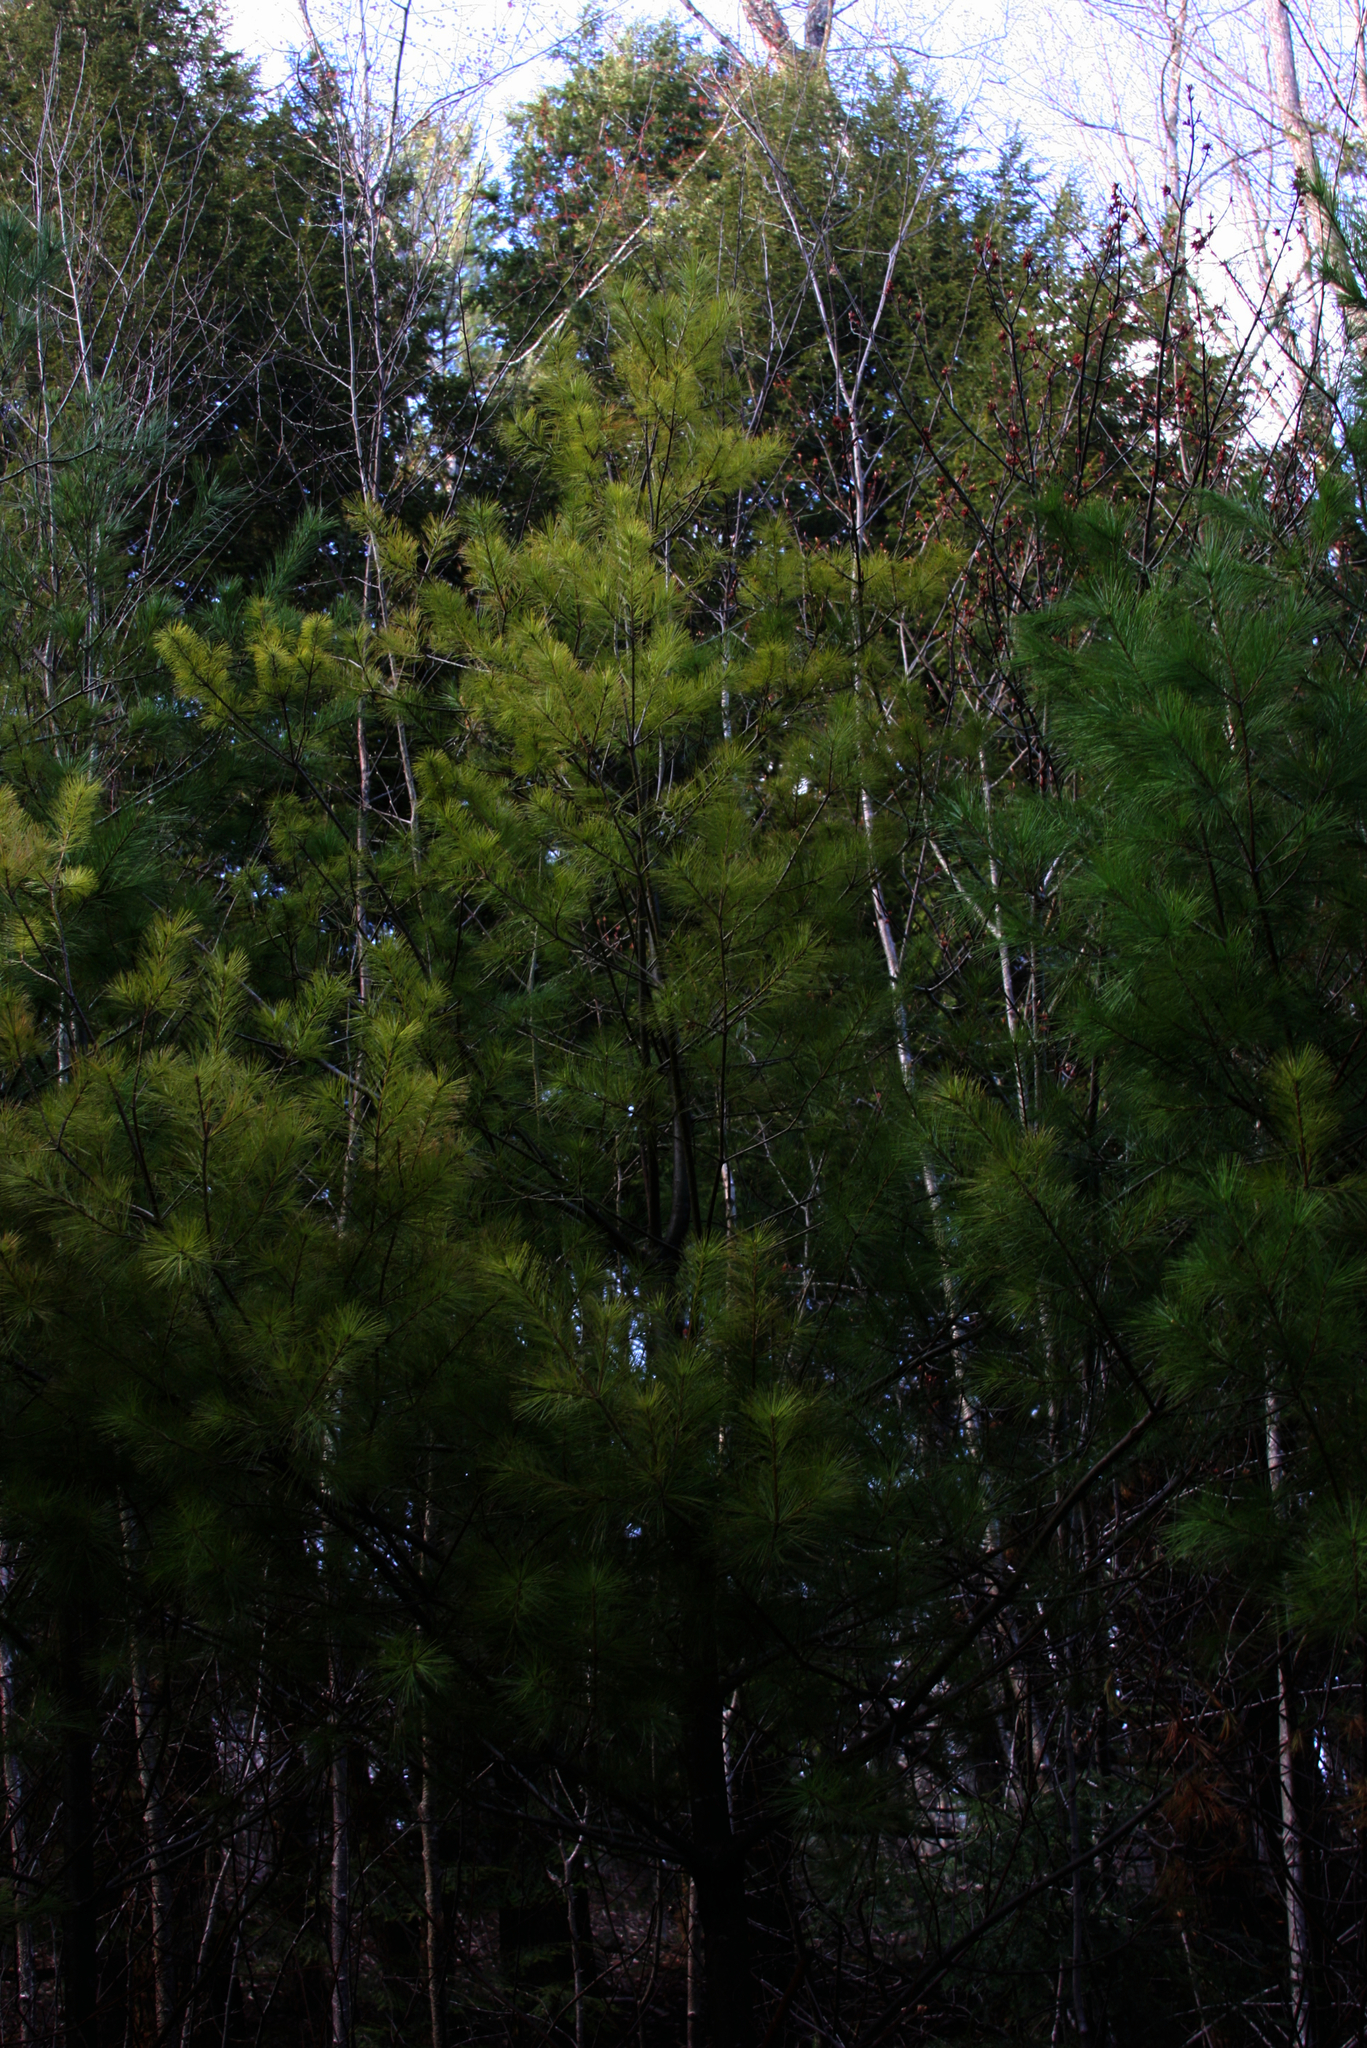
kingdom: Plantae
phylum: Tracheophyta
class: Pinopsida
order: Pinales
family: Pinaceae
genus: Pinus
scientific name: Pinus strobus
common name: Weymouth pine
